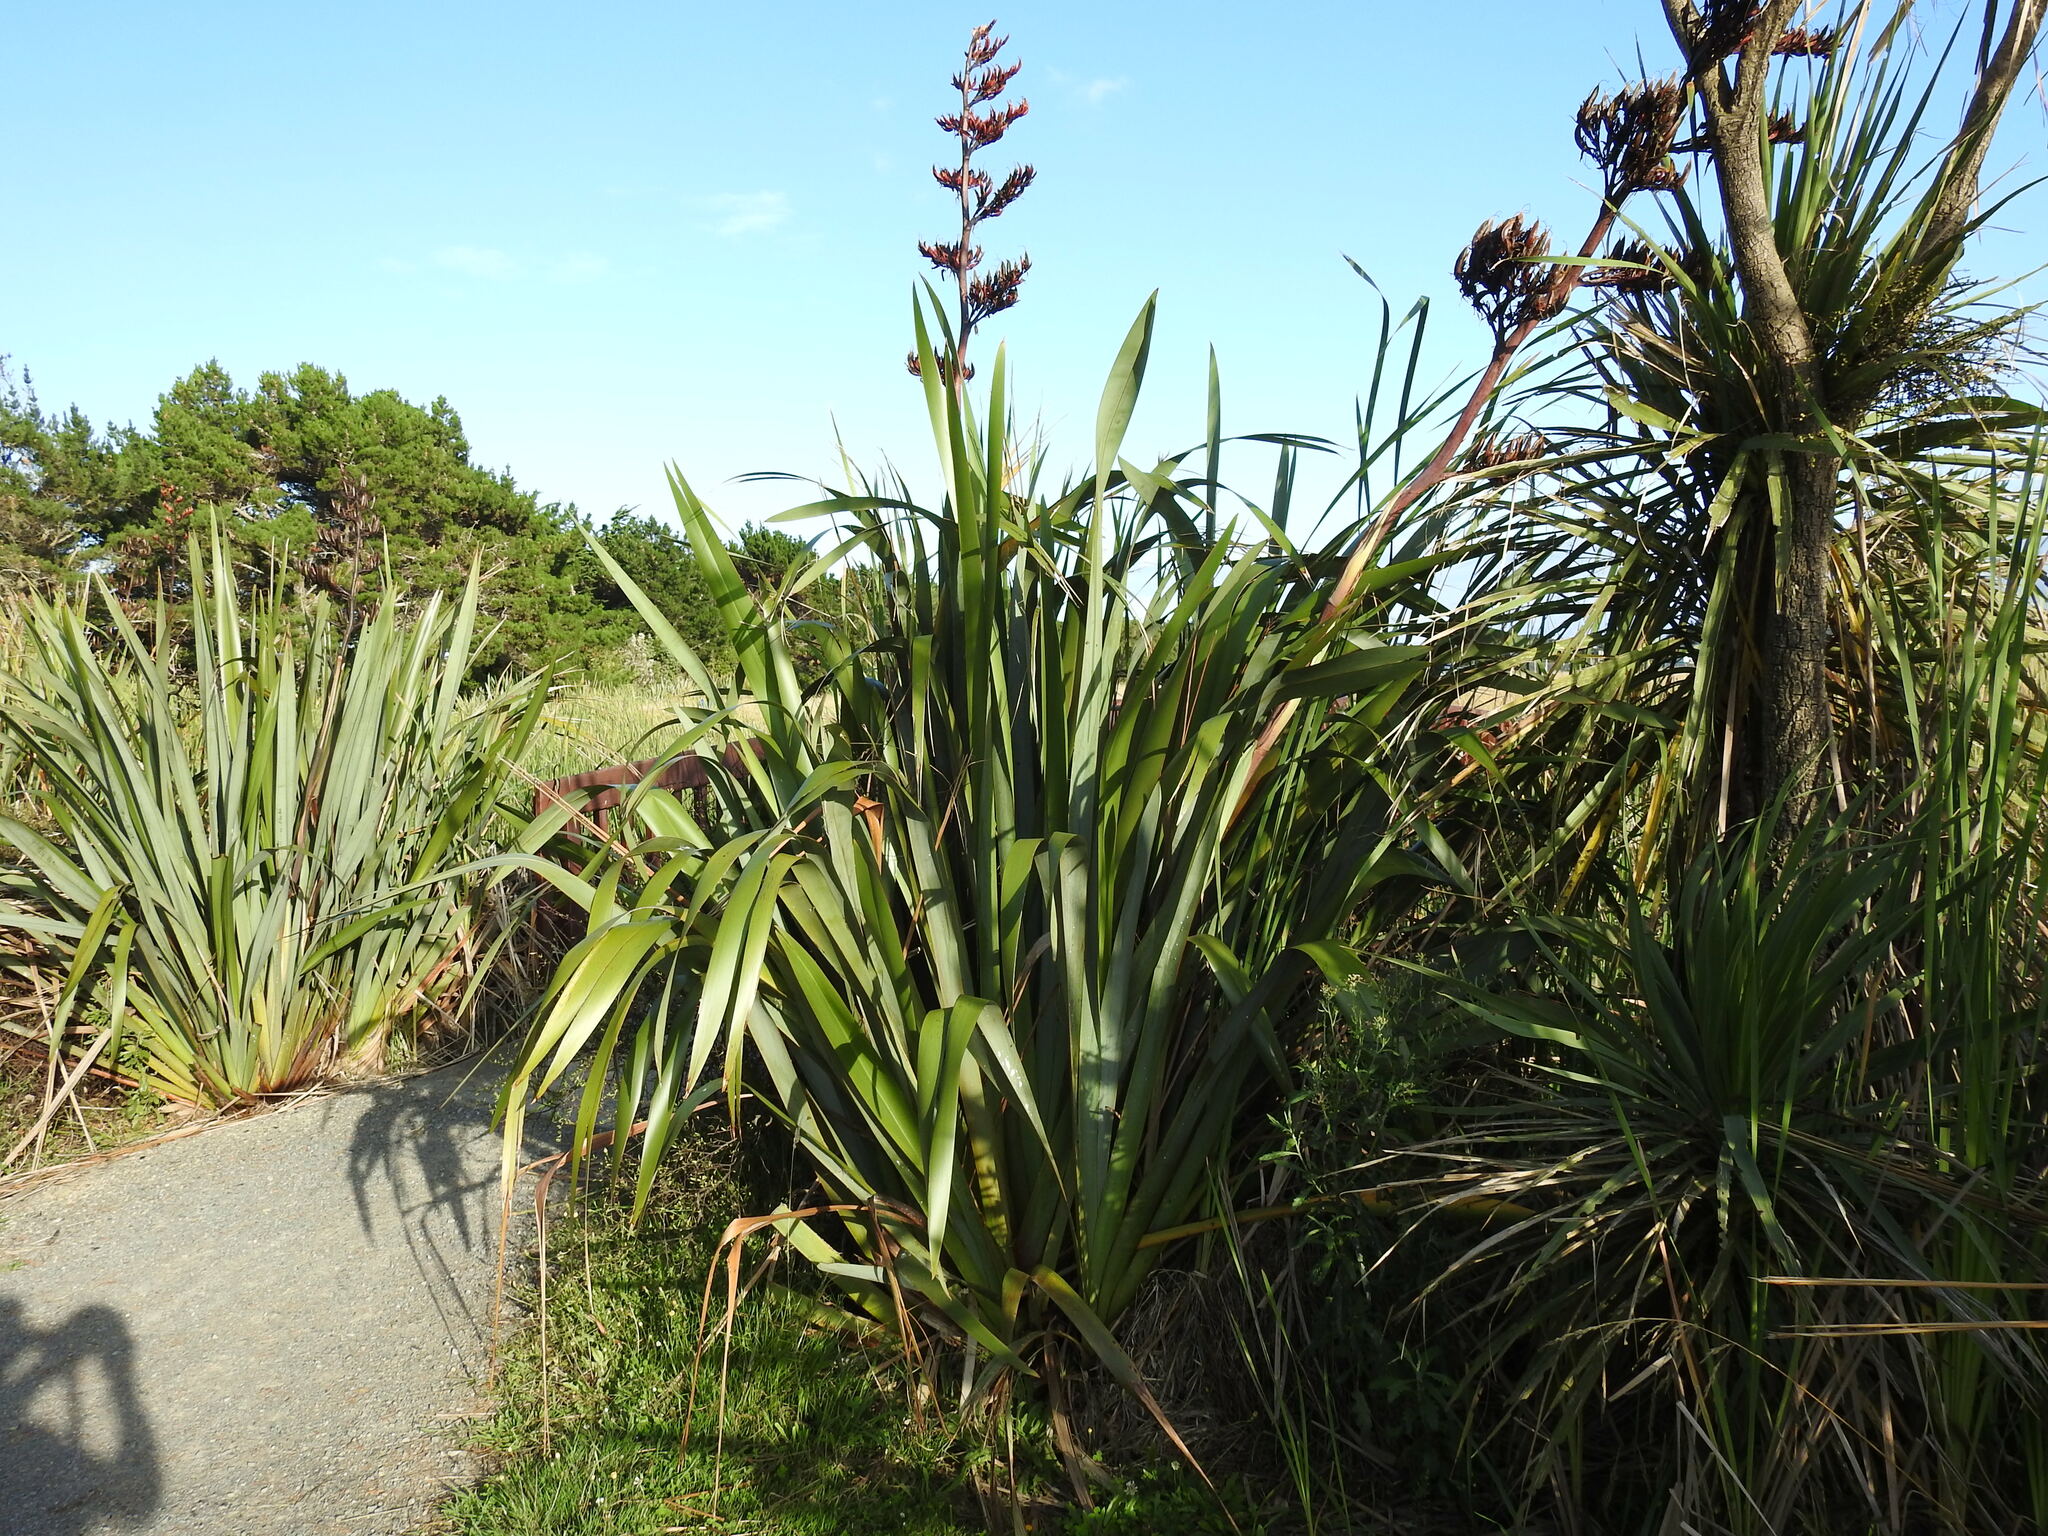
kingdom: Plantae
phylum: Tracheophyta
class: Liliopsida
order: Asparagales
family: Asparagaceae
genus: Cordyline
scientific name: Cordyline australis
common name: Cabbage-palm
